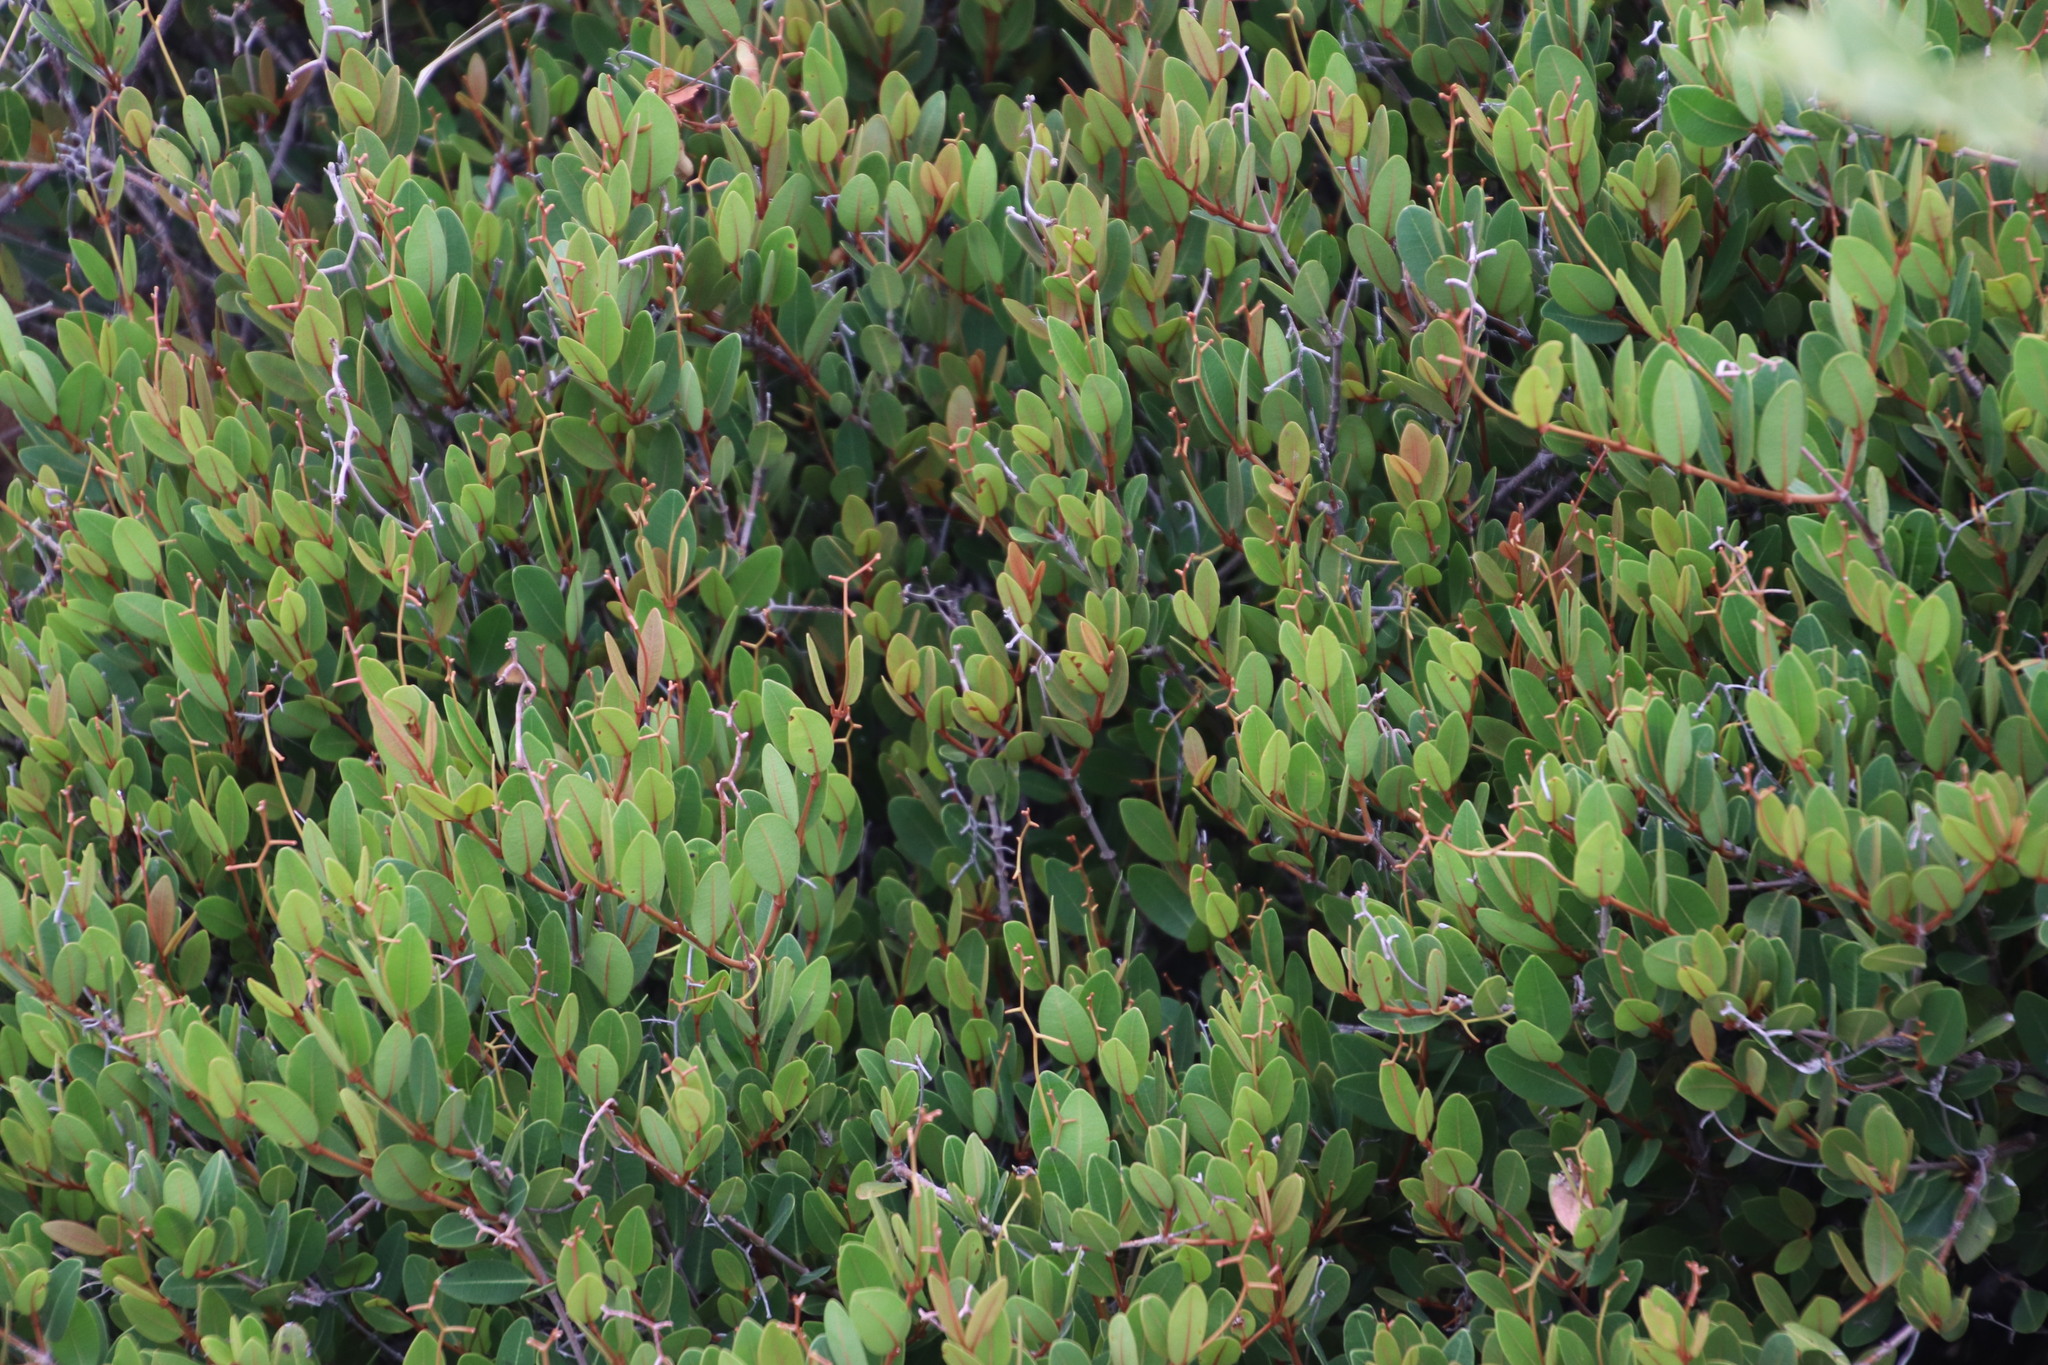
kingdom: Plantae
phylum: Tracheophyta
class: Magnoliopsida
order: Gentianales
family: Apocynaceae
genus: Ancylobothrys
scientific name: Ancylobothrys capensis
